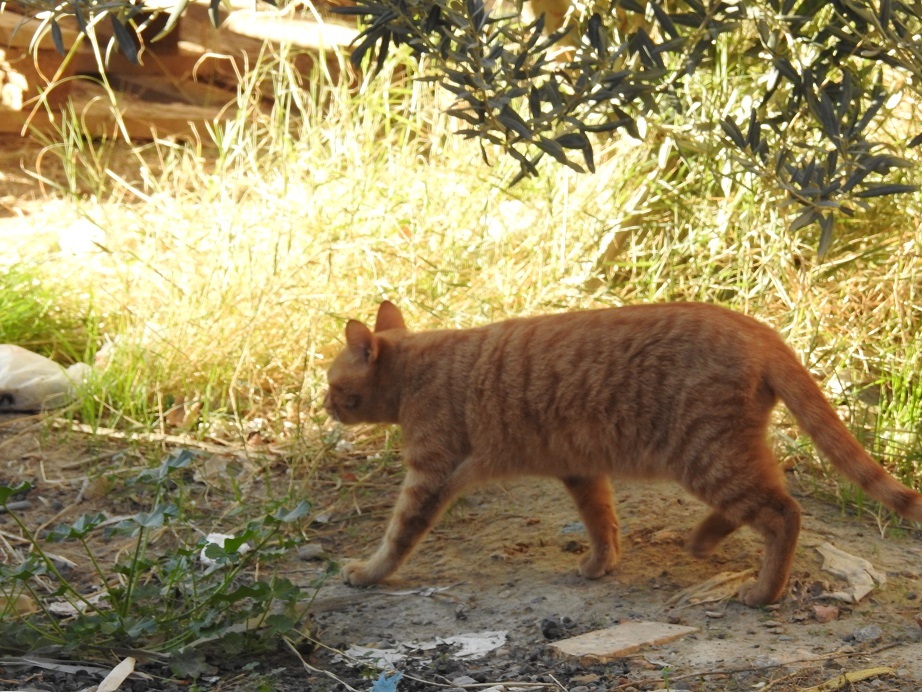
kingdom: Animalia
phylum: Chordata
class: Mammalia
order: Carnivora
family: Felidae
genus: Felis
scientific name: Felis catus
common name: Domestic cat
